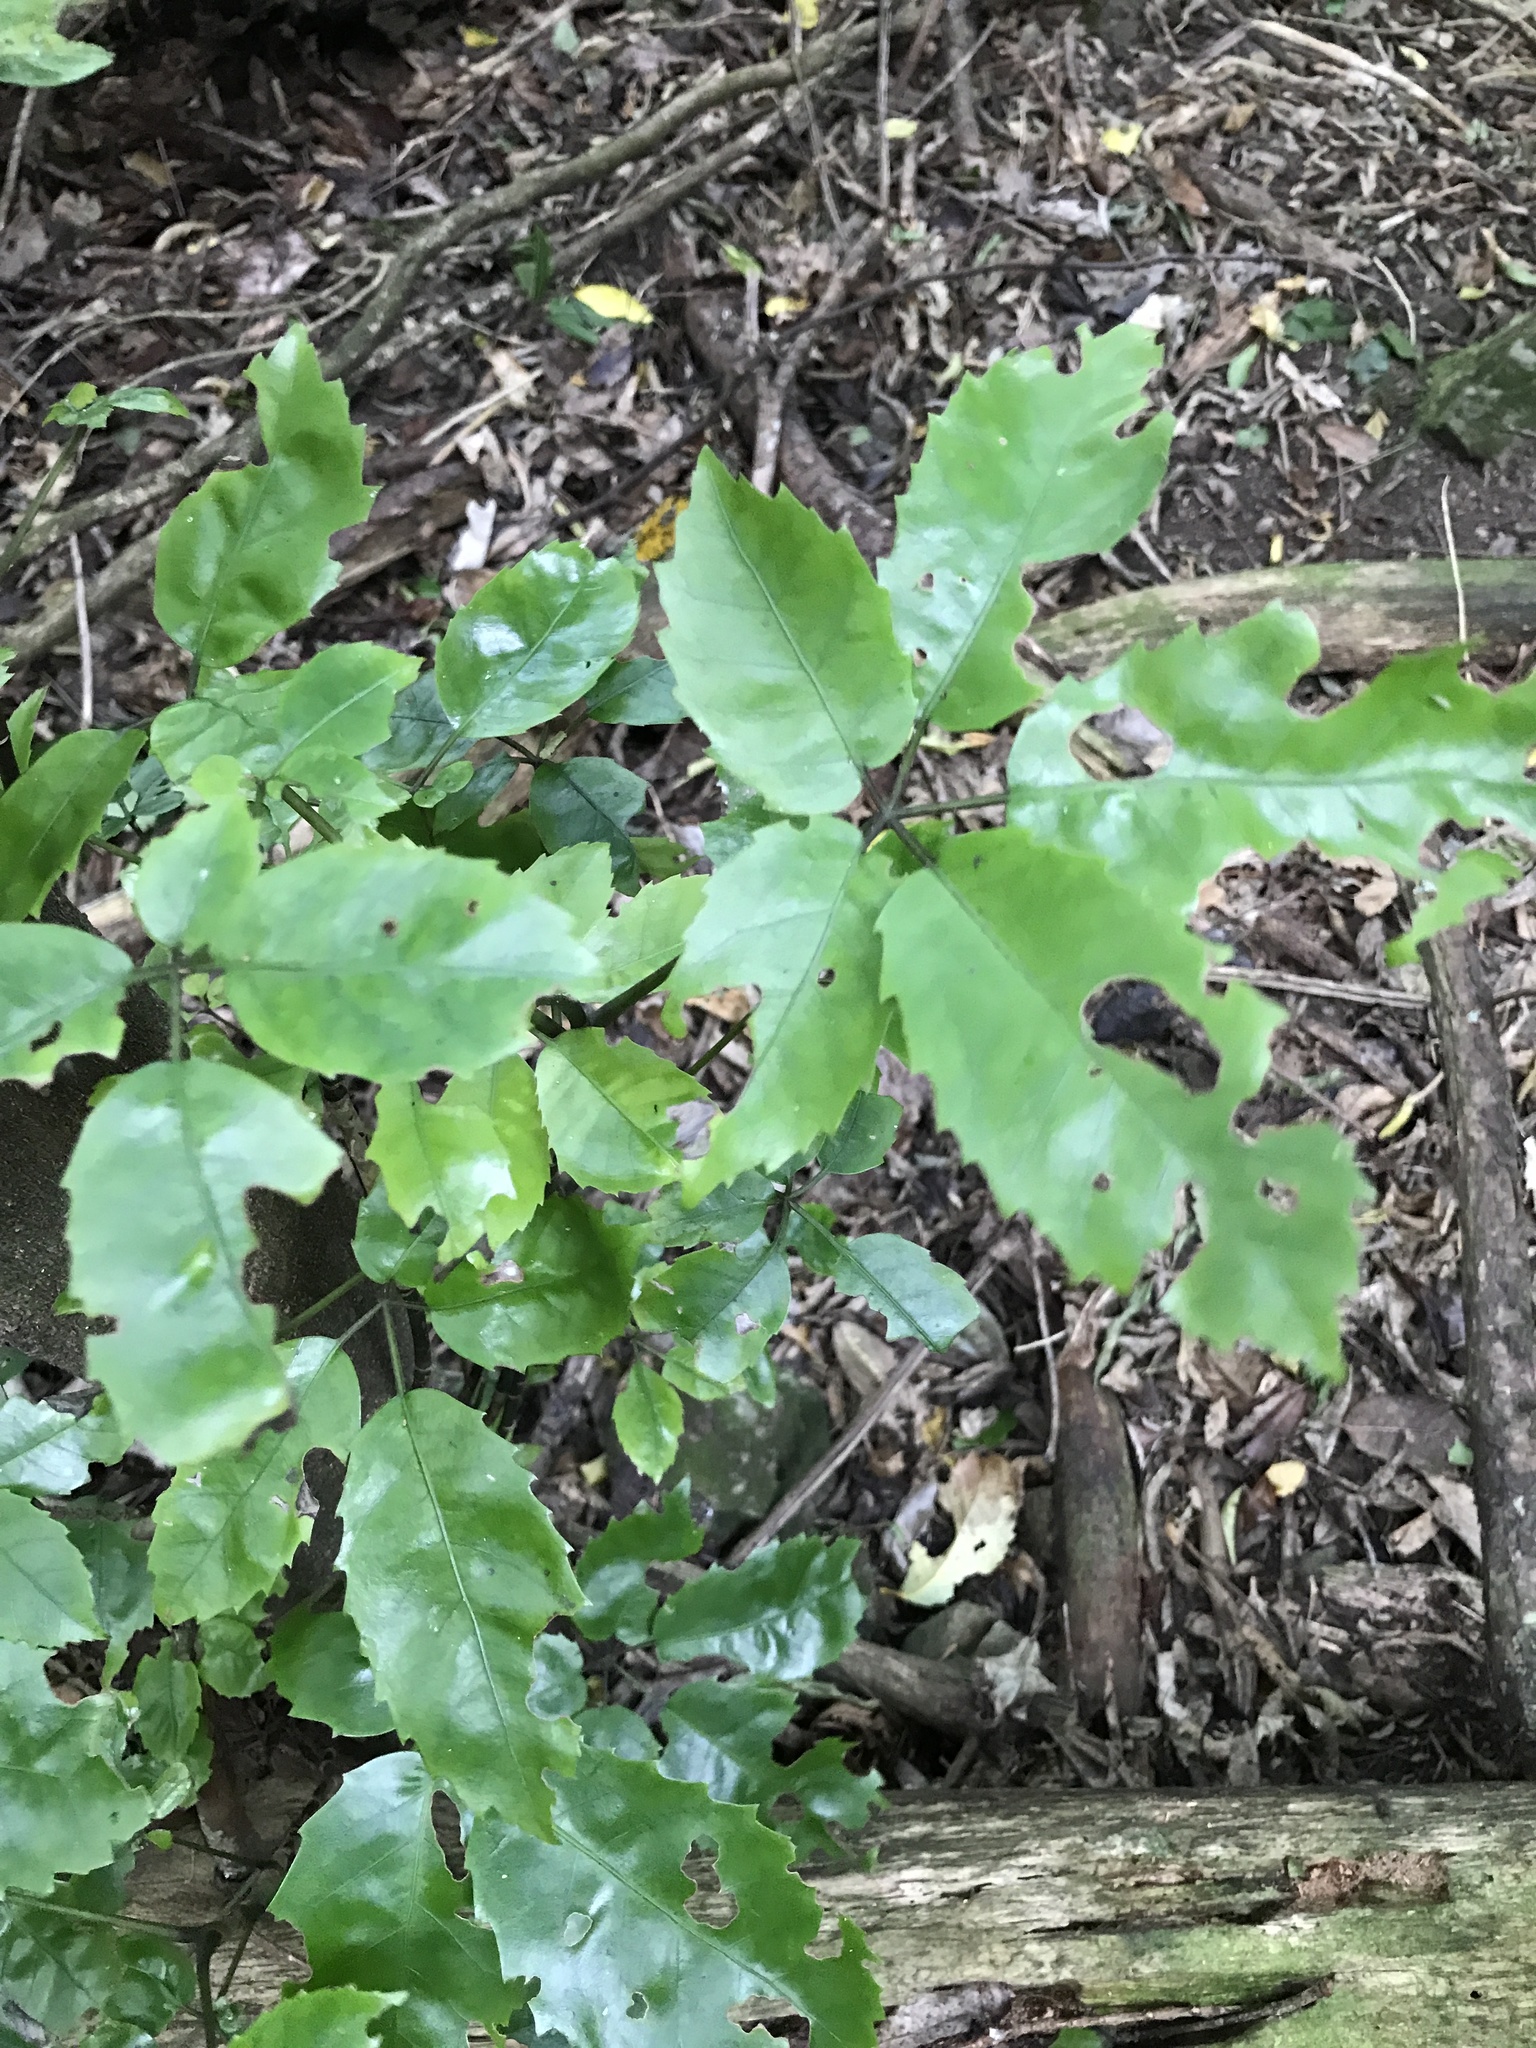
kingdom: Plantae
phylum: Tracheophyta
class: Magnoliopsida
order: Apiales
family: Araliaceae
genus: Neopanax
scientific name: Neopanax arboreus
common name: Five-fingers
